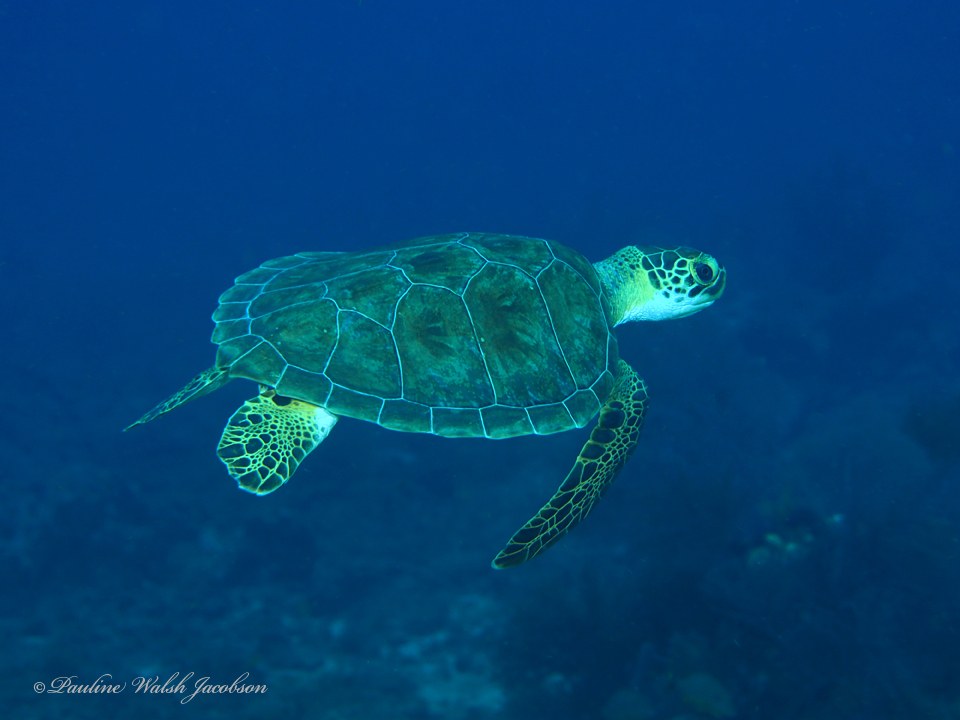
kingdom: Animalia
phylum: Chordata
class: Testudines
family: Cheloniidae
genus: Chelonia
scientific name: Chelonia mydas
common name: Green turtle
